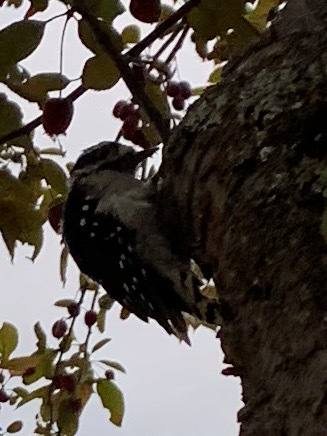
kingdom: Animalia
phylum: Chordata
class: Aves
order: Piciformes
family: Picidae
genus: Dryobates
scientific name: Dryobates pubescens
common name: Downy woodpecker
